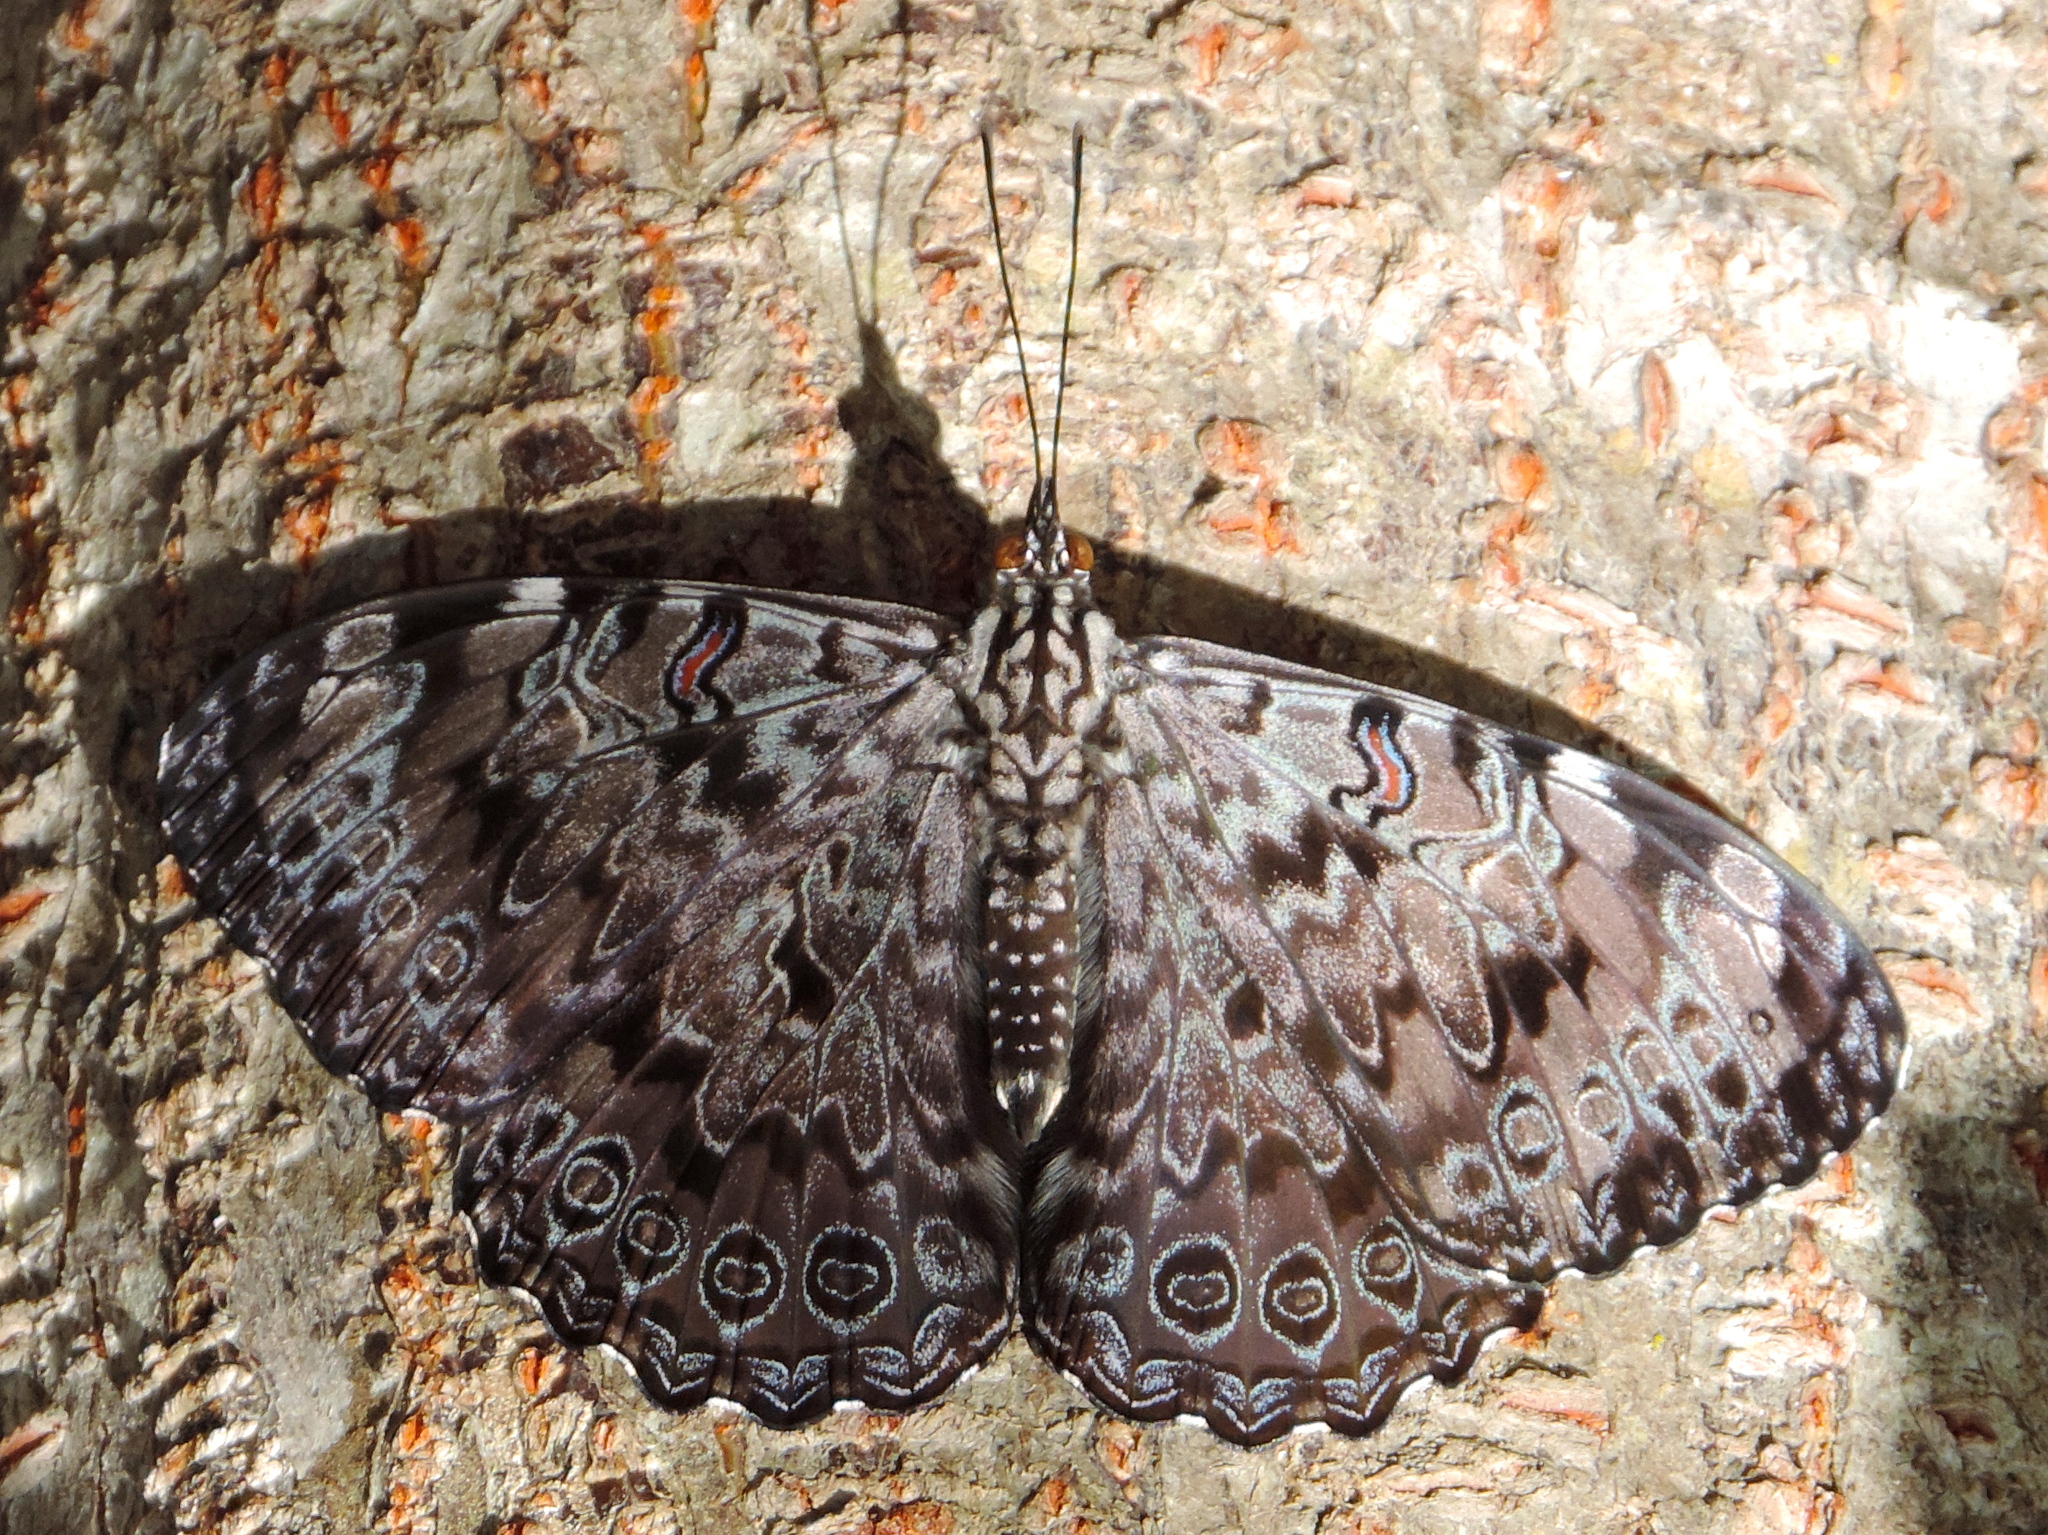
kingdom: Animalia
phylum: Arthropoda
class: Insecta
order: Lepidoptera
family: Nymphalidae
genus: Hamadryas
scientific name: Hamadryas guatemalena
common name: Guatemalan cracker
